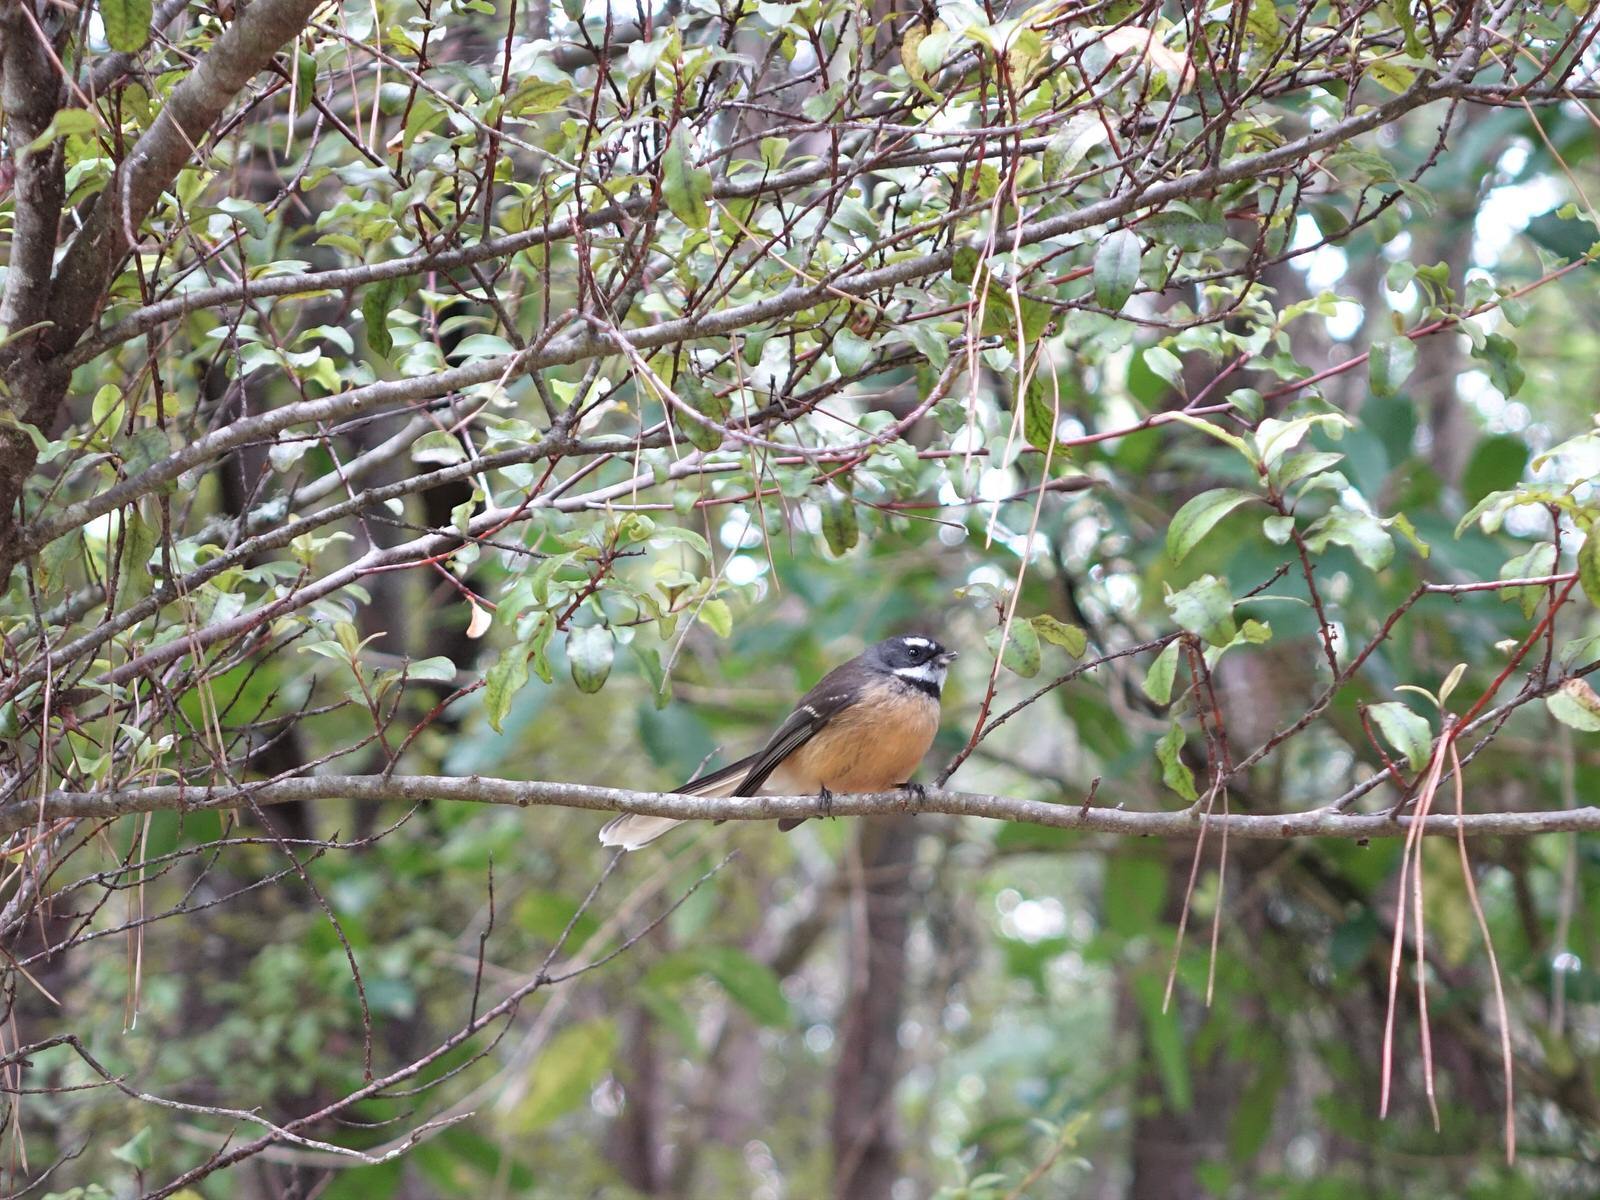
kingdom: Animalia
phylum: Chordata
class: Aves
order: Passeriformes
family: Rhipiduridae
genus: Rhipidura
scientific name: Rhipidura fuliginosa
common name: New zealand fantail
